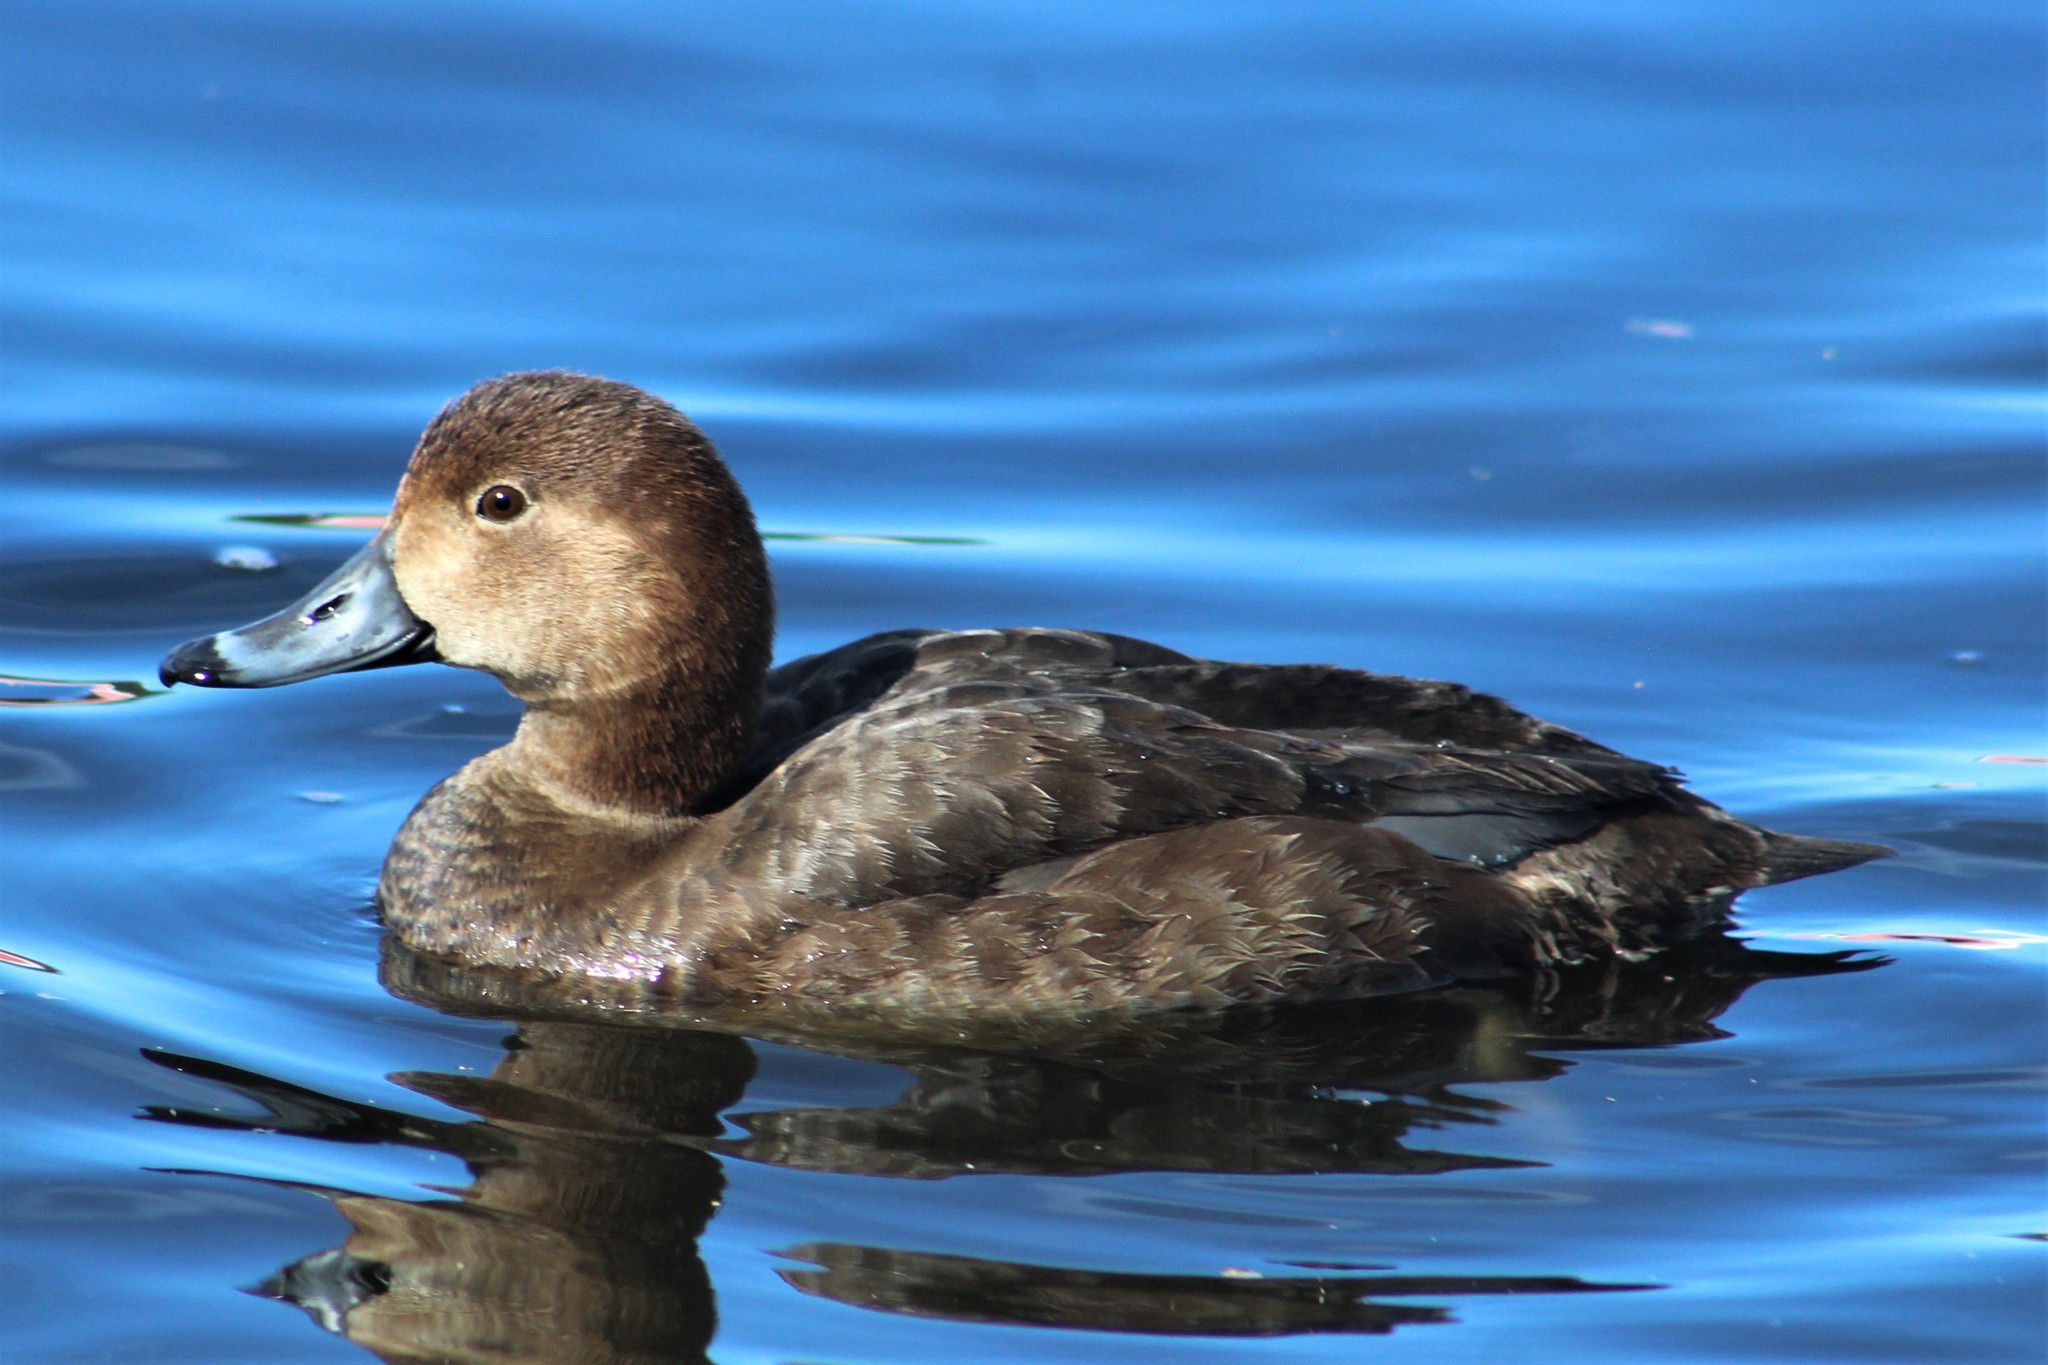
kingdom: Animalia
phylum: Chordata
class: Aves
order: Anseriformes
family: Anatidae
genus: Aythya
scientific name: Aythya americana
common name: Redhead
